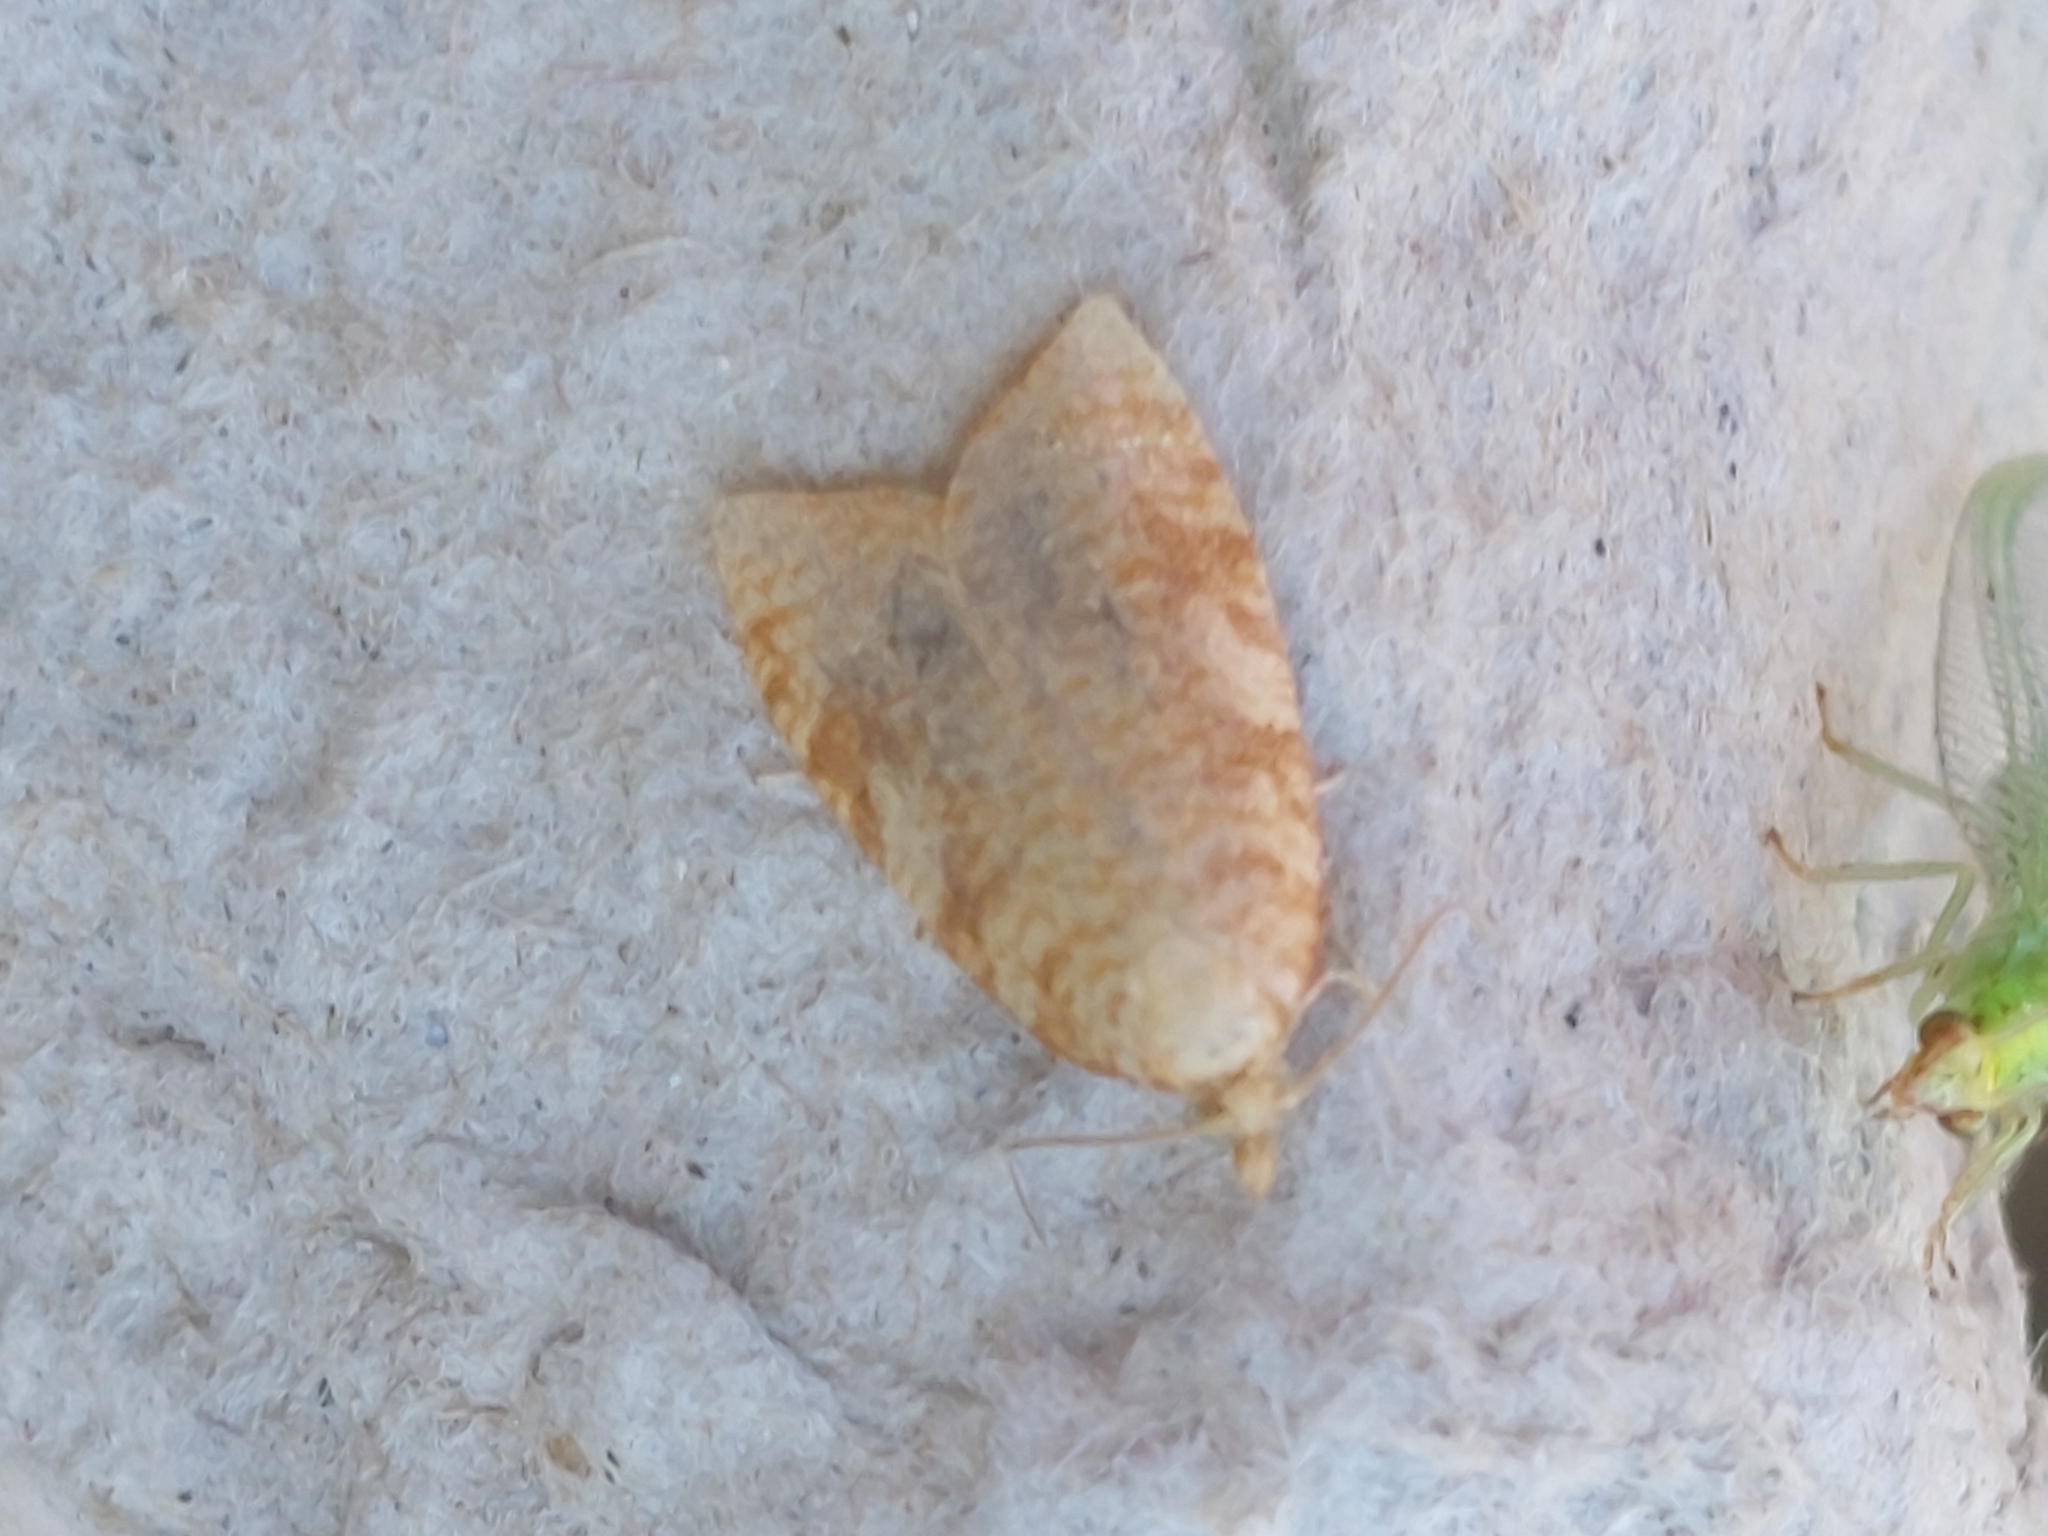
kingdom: Animalia
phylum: Arthropoda
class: Insecta
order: Lepidoptera
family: Tortricidae
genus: Aleimma
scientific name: Aleimma loeflingiana
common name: Yellow oak button
